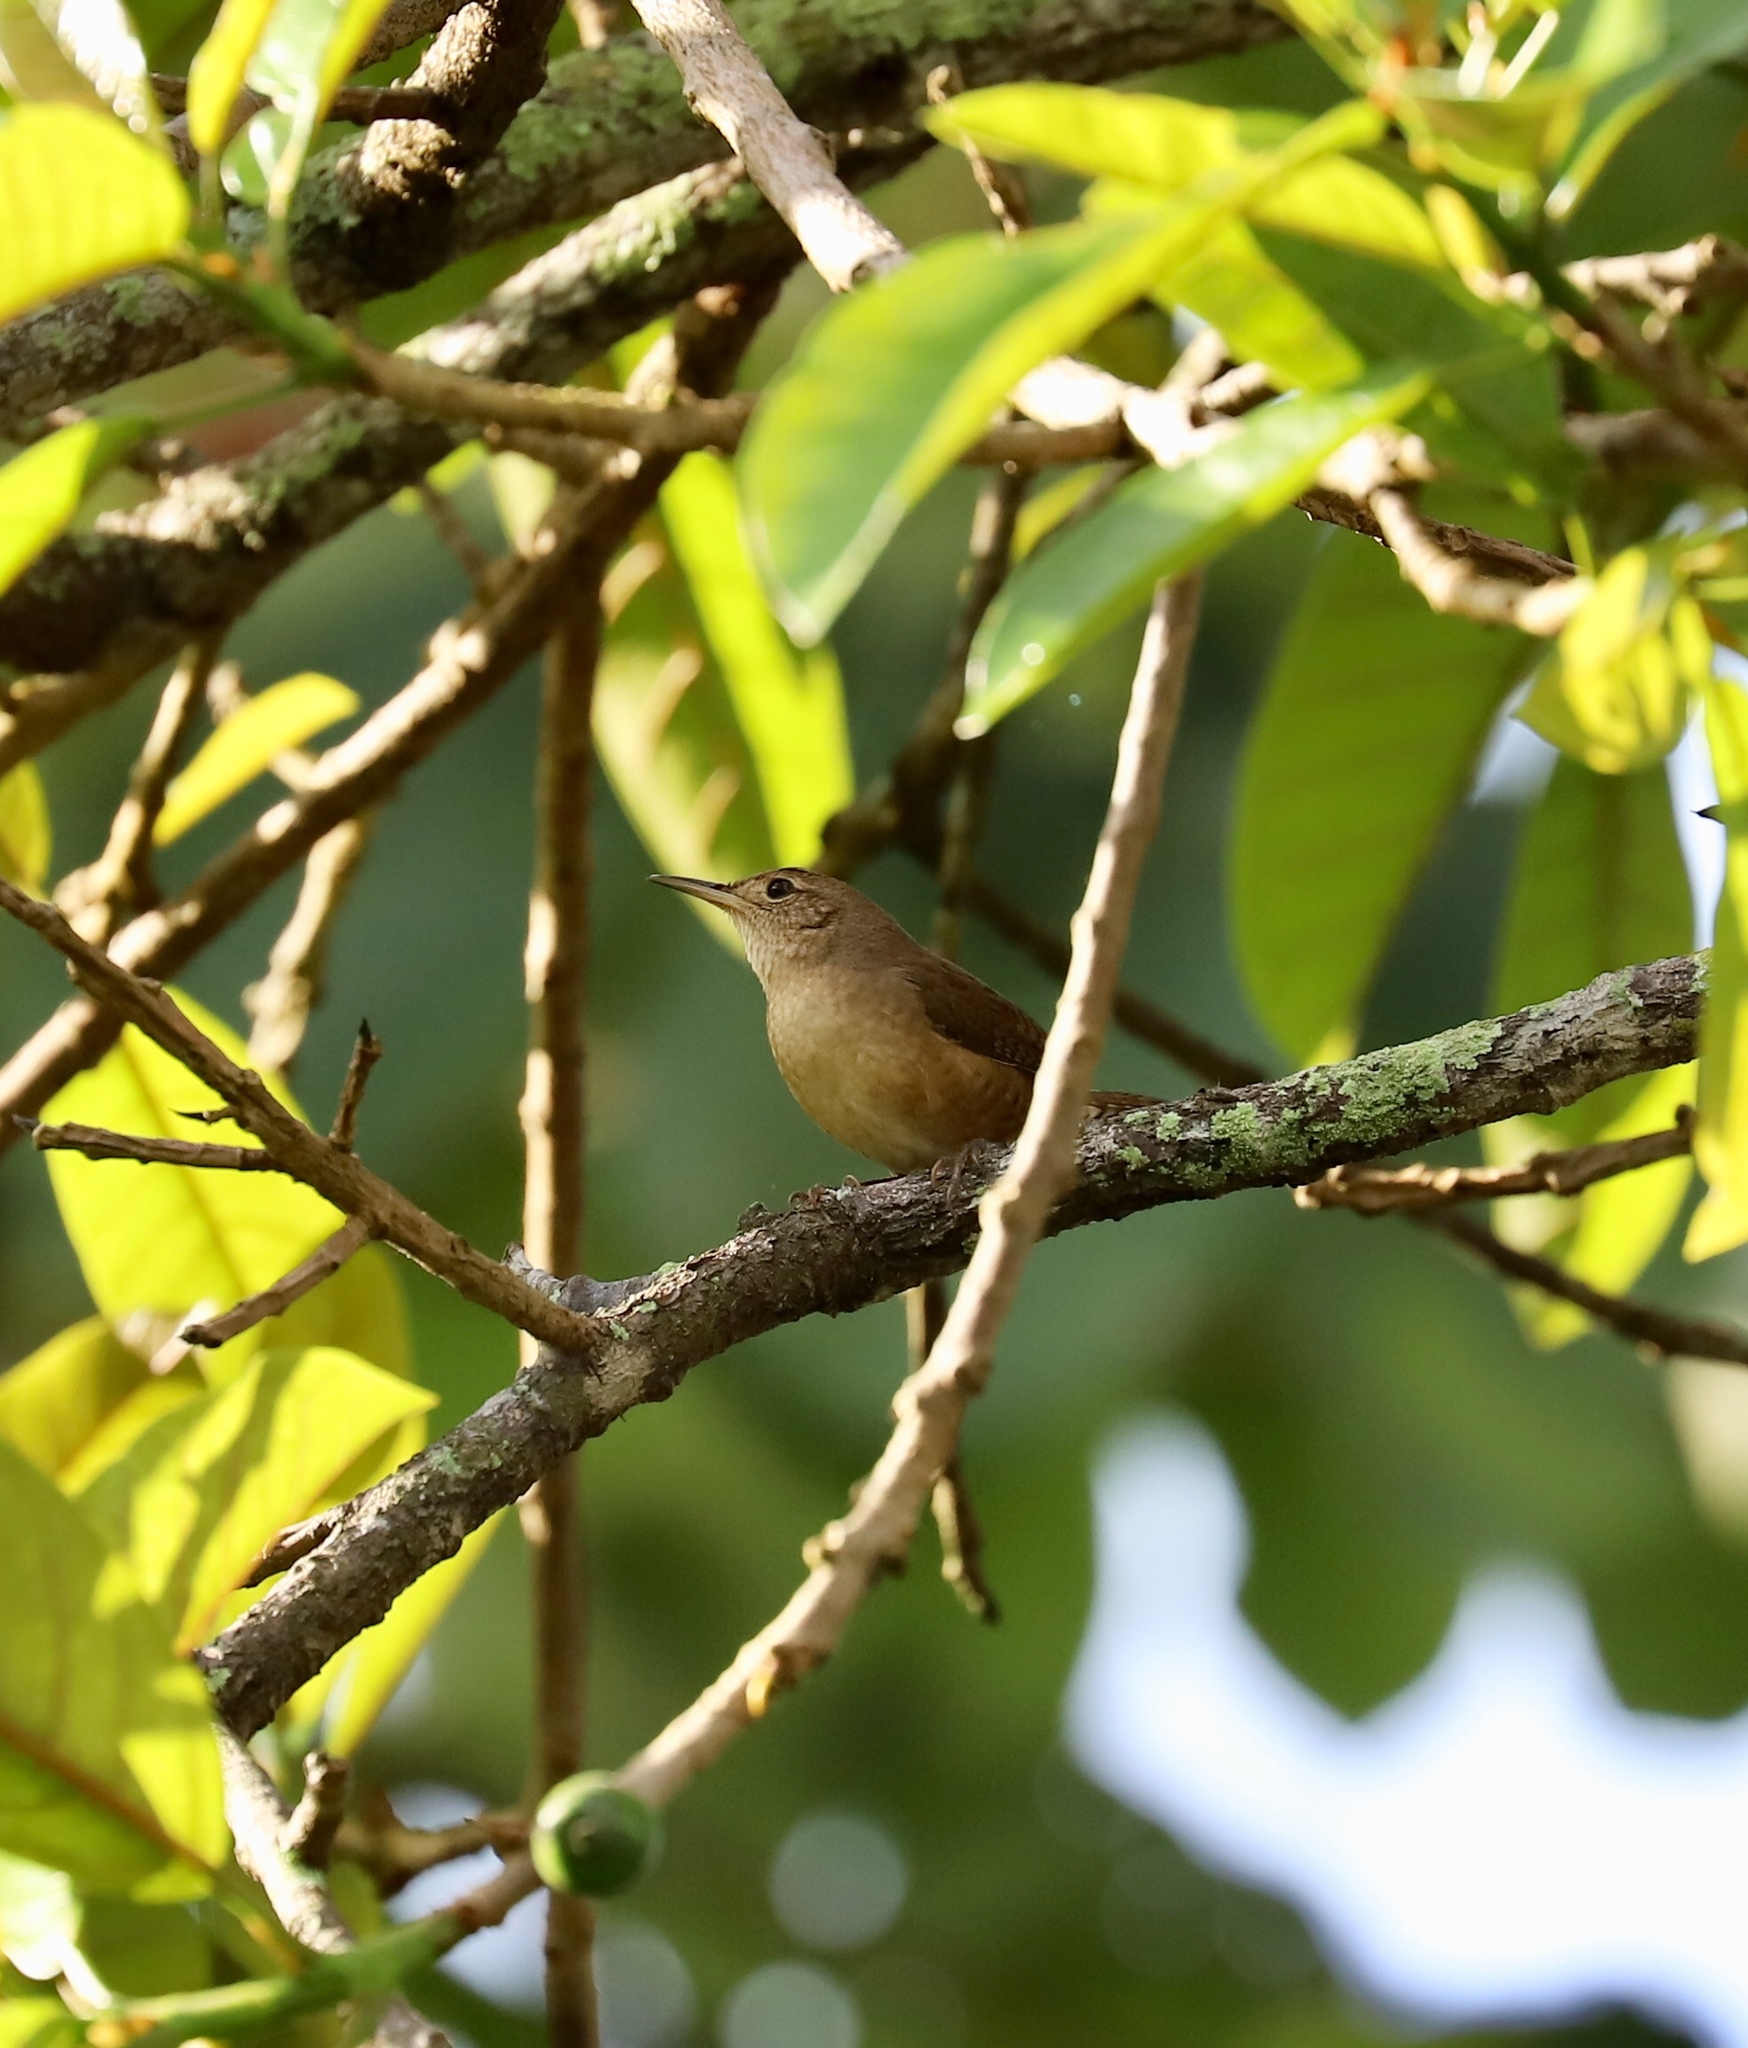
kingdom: Animalia
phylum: Chordata
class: Aves
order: Passeriformes
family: Troglodytidae
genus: Troglodytes
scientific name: Troglodytes aedon
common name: House wren
